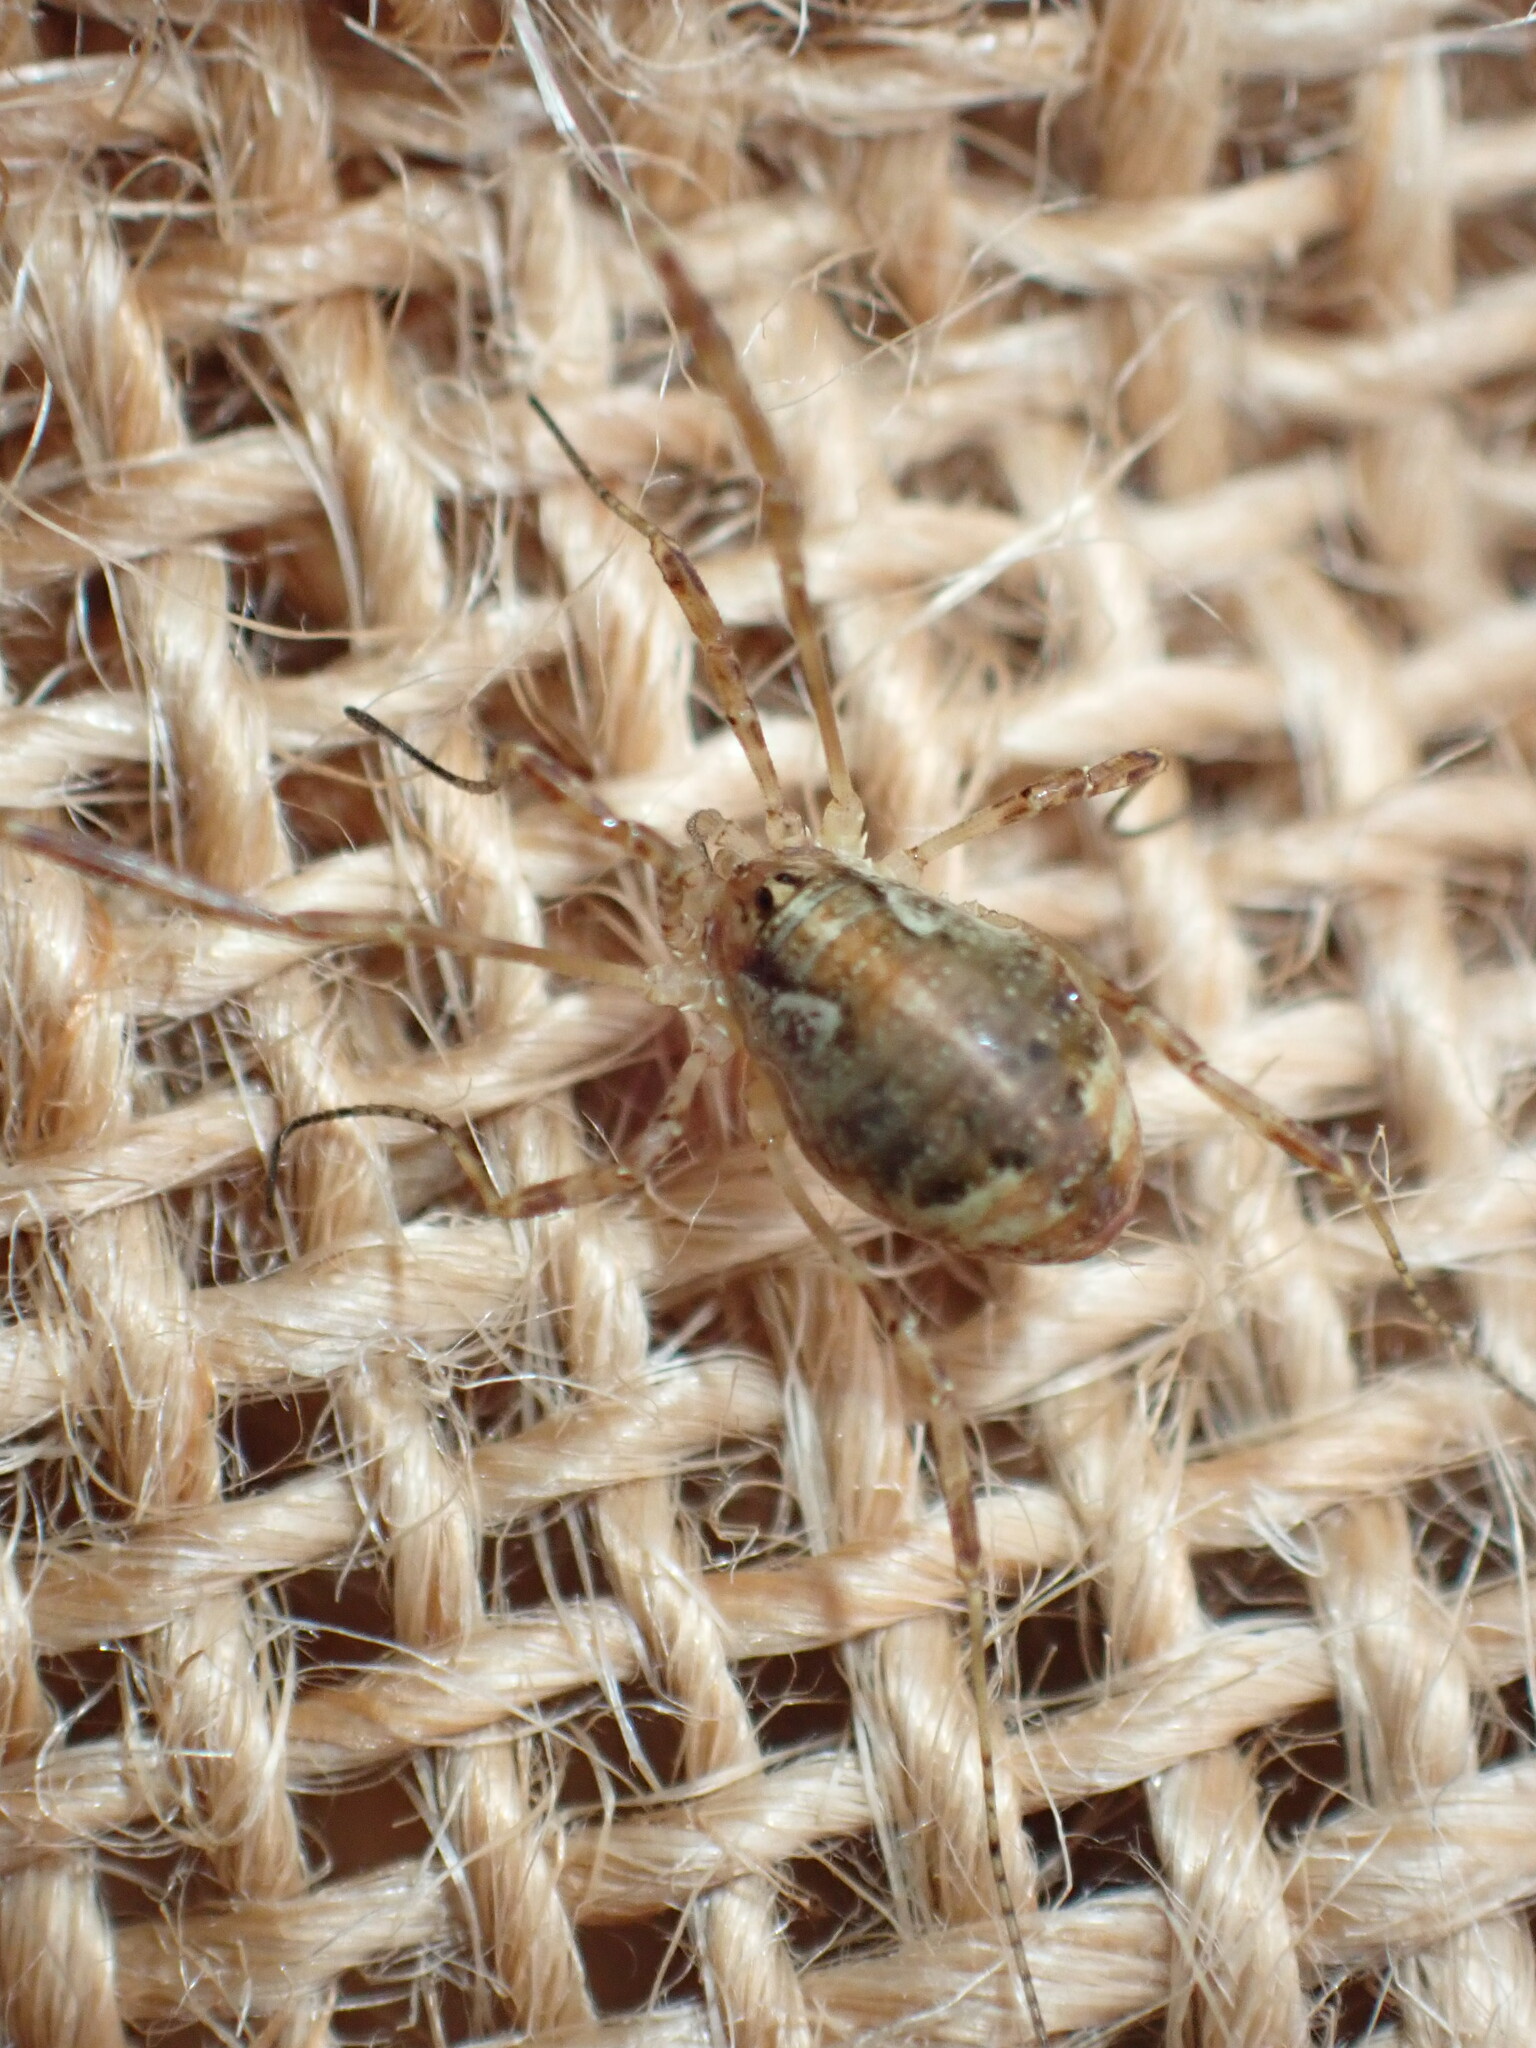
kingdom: Animalia
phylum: Arthropoda
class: Arachnida
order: Opiliones
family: Phalangiidae
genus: Paroligolophus
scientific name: Paroligolophus agrestis
